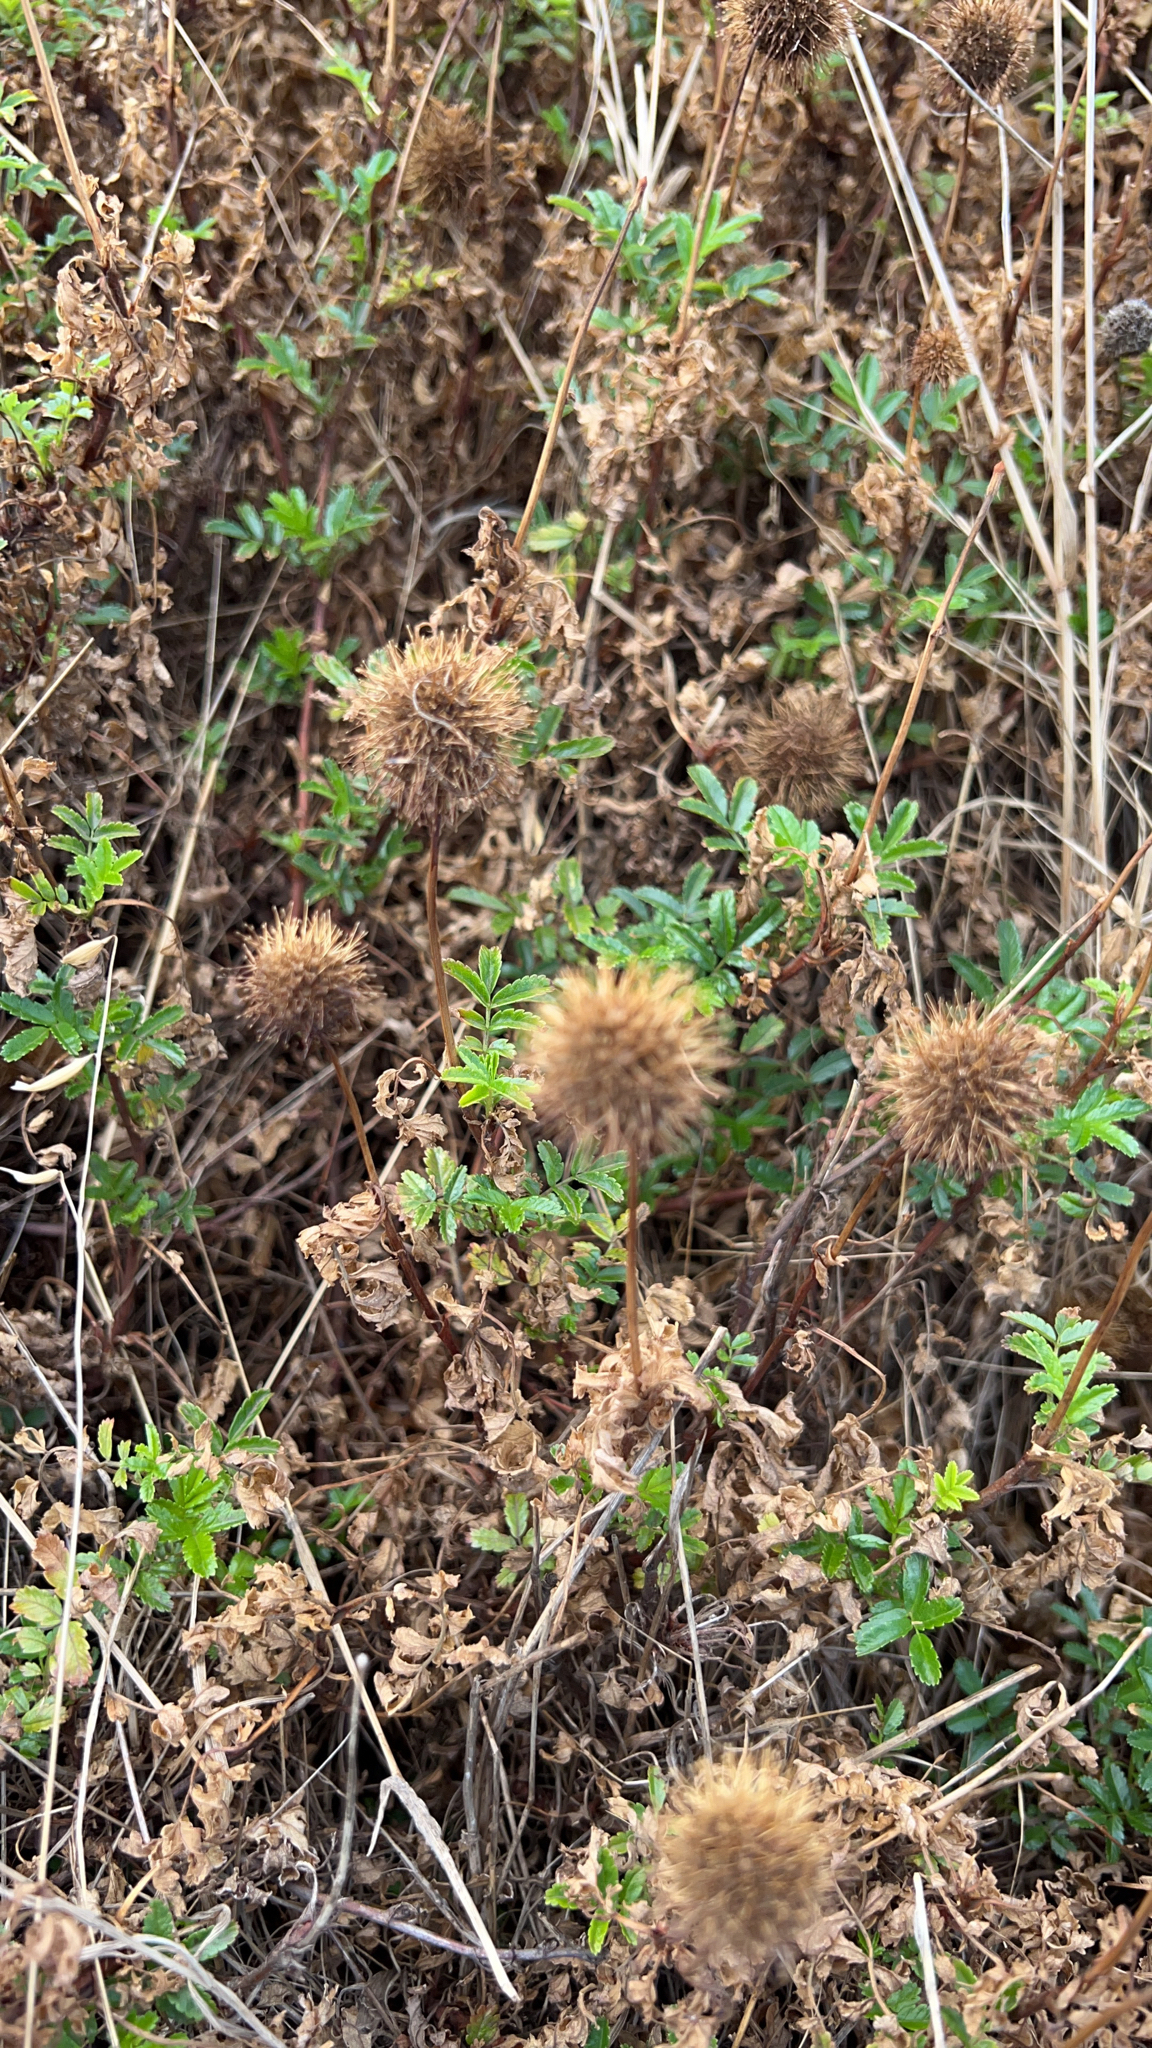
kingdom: Plantae
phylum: Tracheophyta
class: Magnoliopsida
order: Rosales
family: Rosaceae
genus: Acaena
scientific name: Acaena novae-zelandiae
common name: Pirri-pirri-bur
